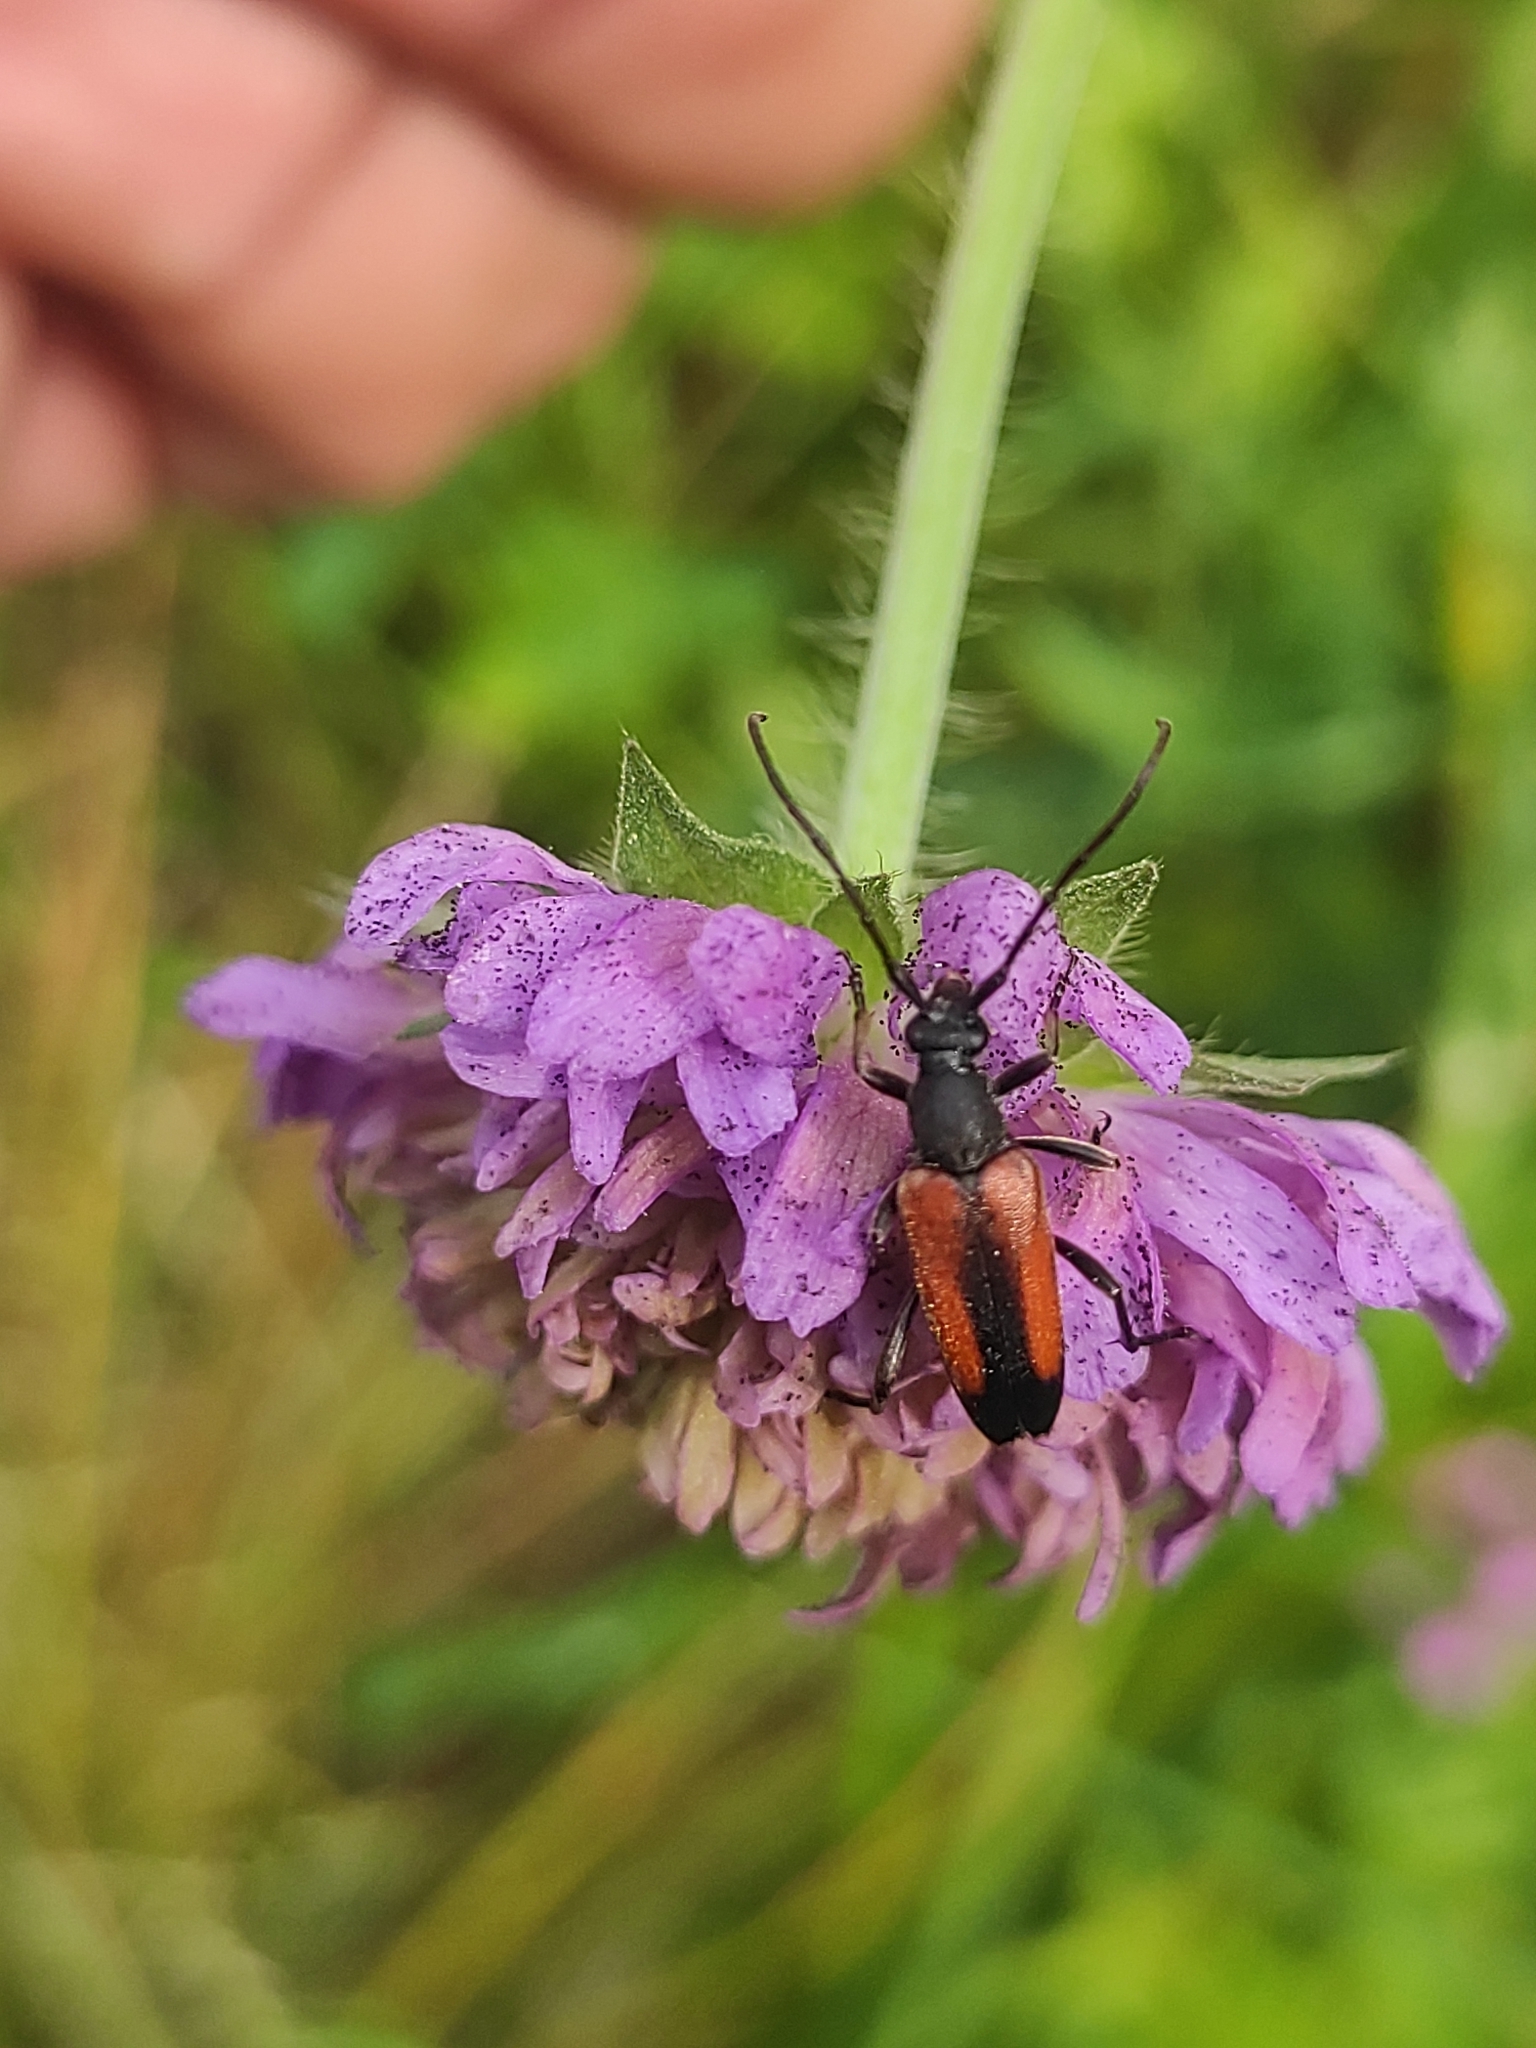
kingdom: Animalia
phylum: Arthropoda
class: Insecta
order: Coleoptera
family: Cerambycidae
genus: Stenurella
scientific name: Stenurella melanura
